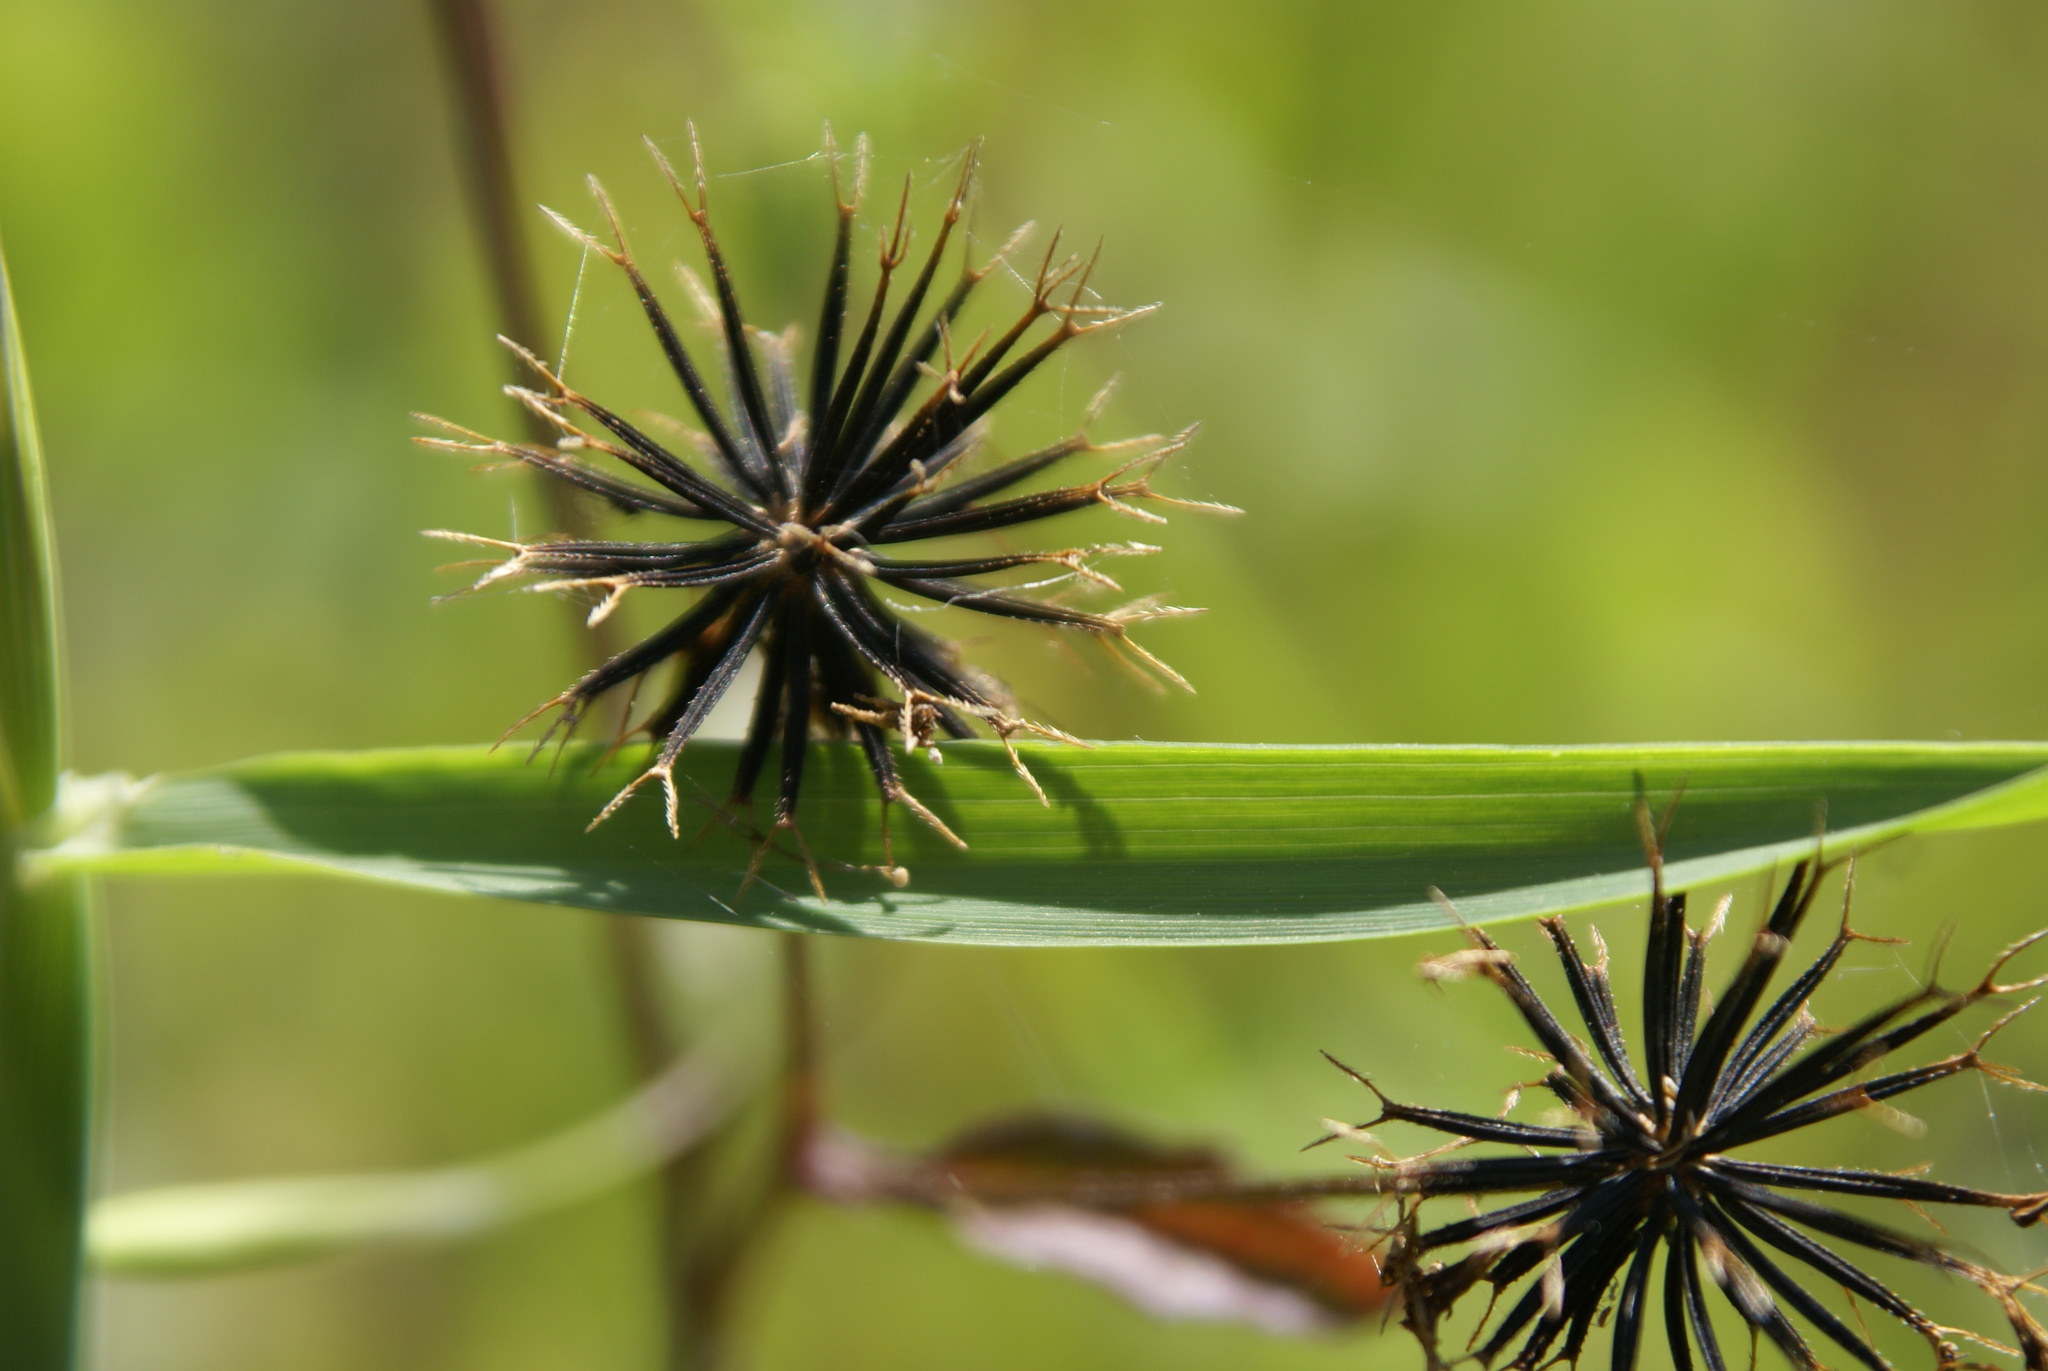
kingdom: Plantae
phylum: Tracheophyta
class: Magnoliopsida
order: Asterales
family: Asteraceae
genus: Bidens
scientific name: Bidens pilosa
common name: Black-jack
